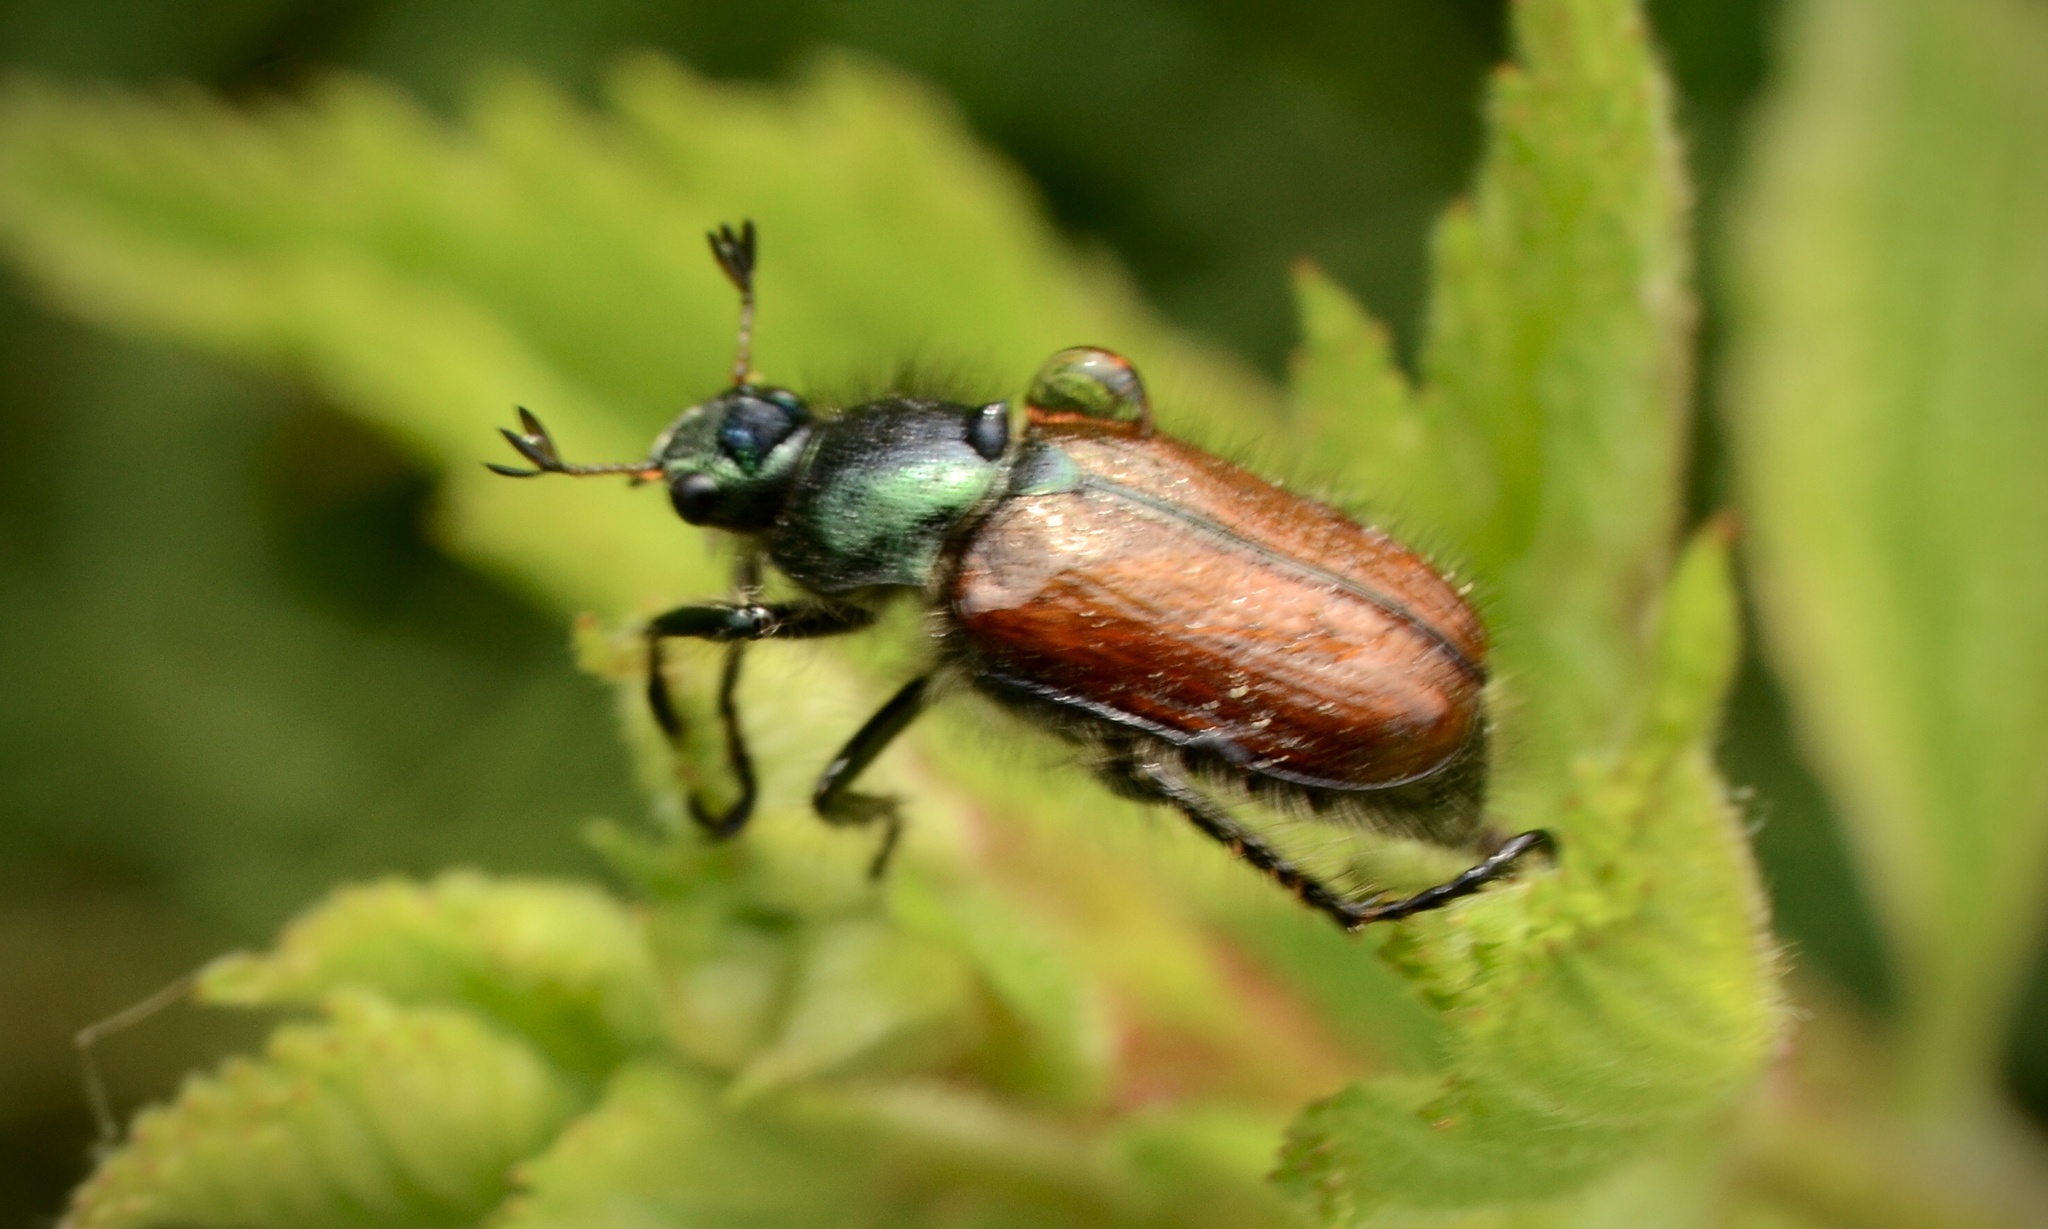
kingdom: Animalia
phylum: Arthropoda
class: Insecta
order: Coleoptera
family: Scarabaeidae
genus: Phyllopertha
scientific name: Phyllopertha horticola
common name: Garden chafer
